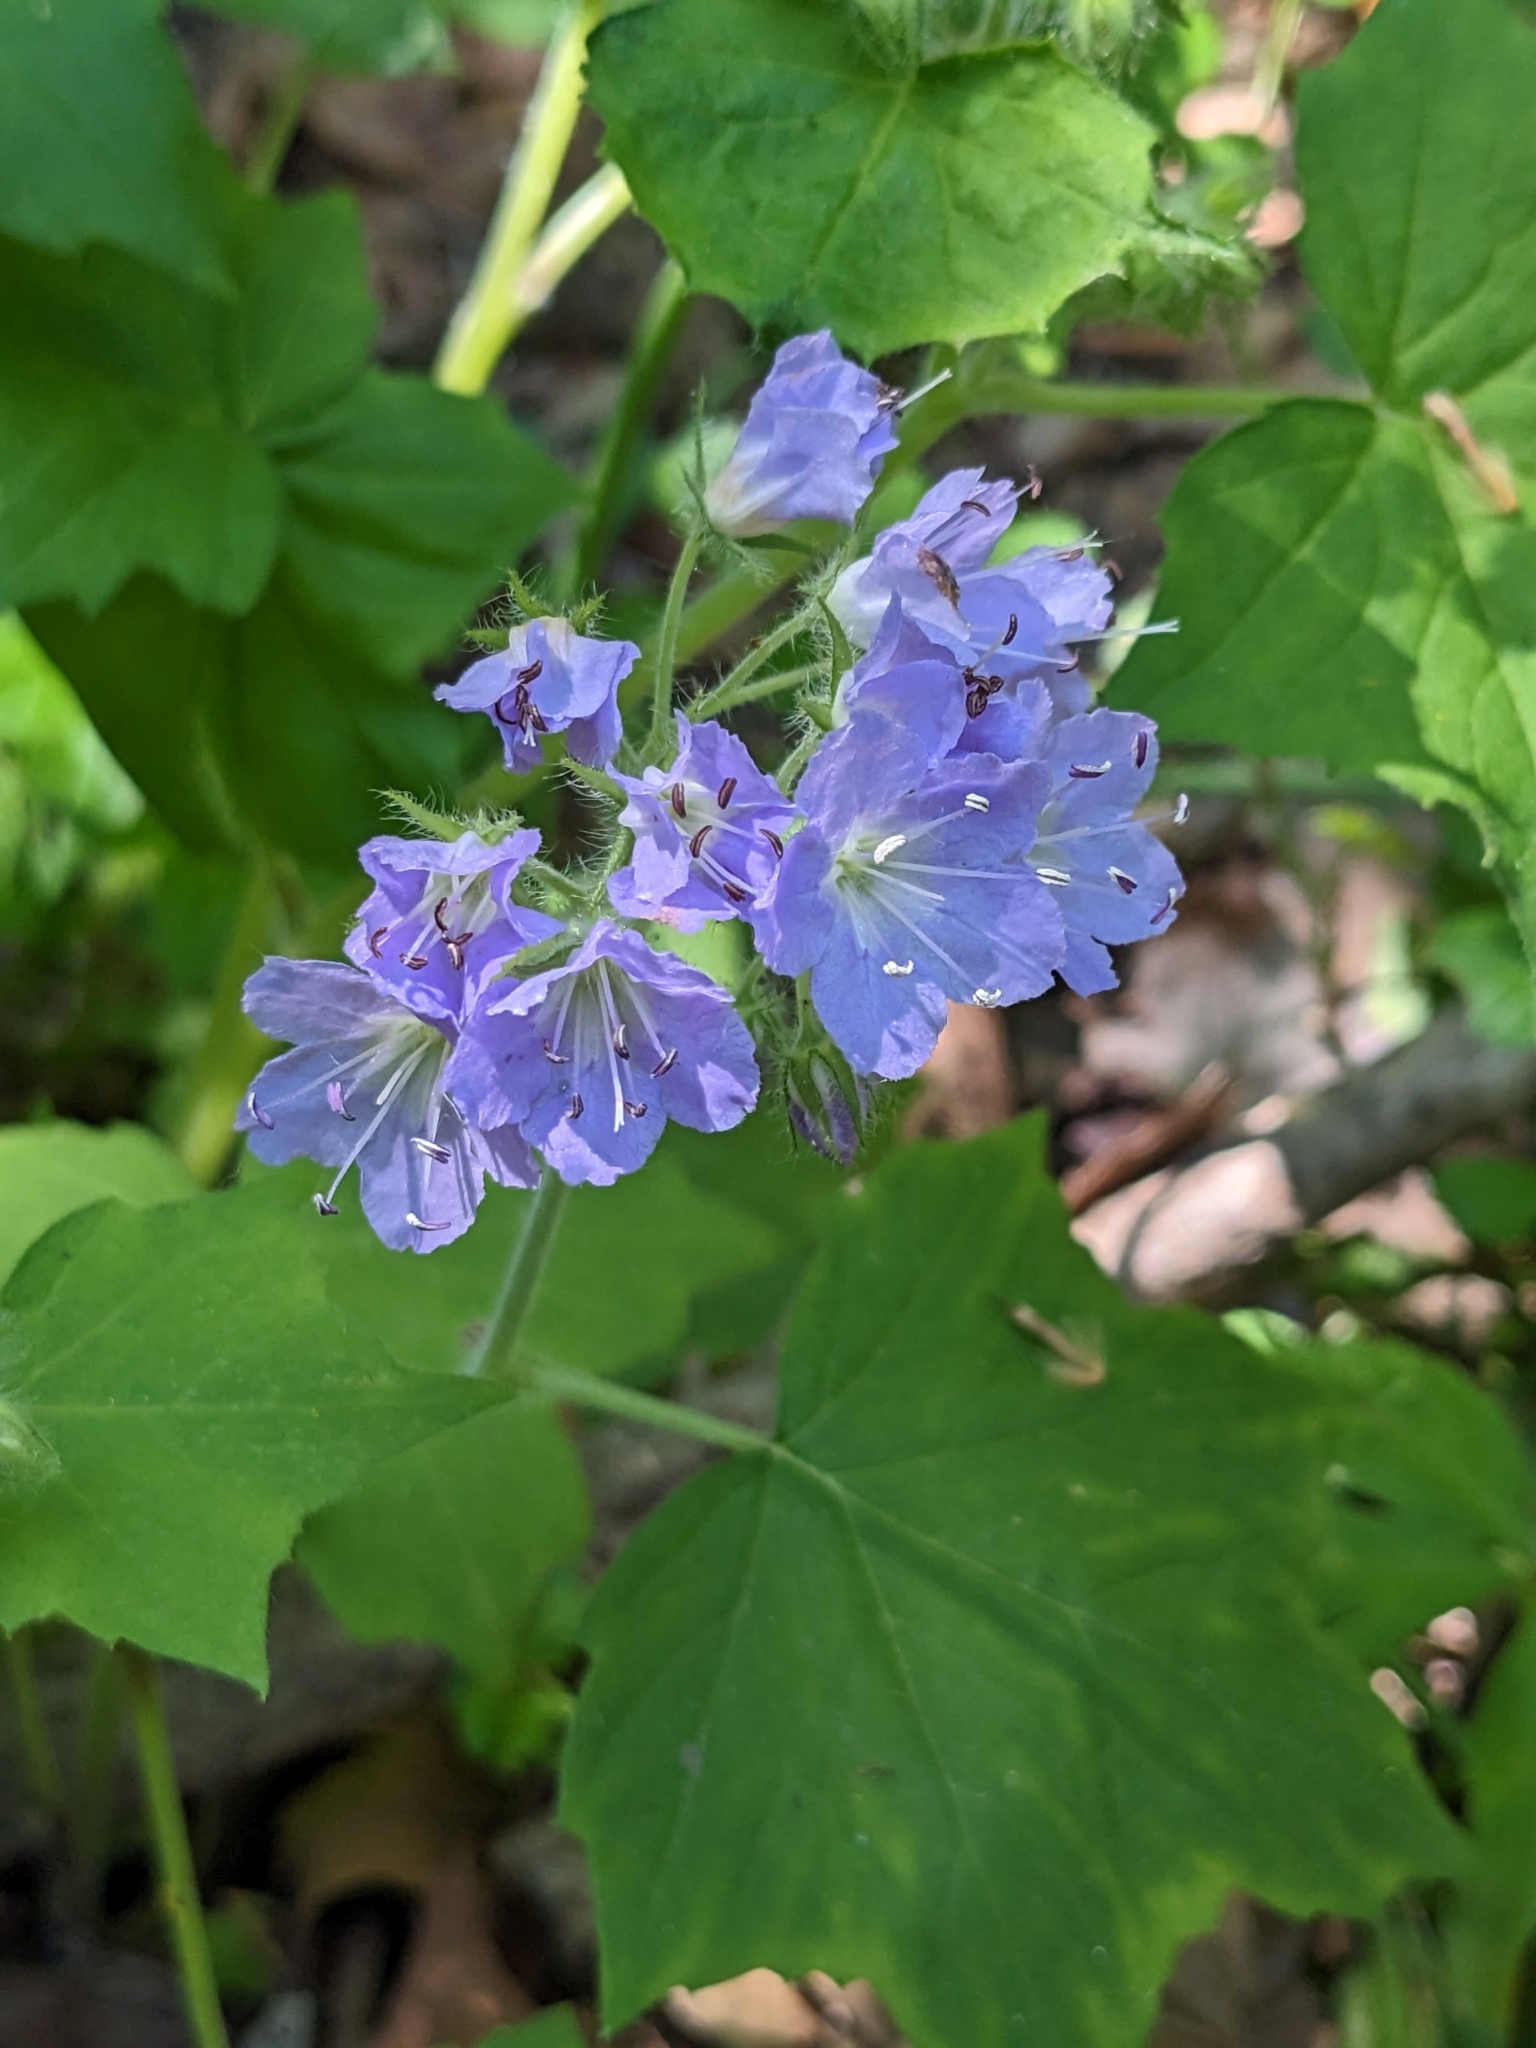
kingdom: Plantae
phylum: Tracheophyta
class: Magnoliopsida
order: Boraginales
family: Hydrophyllaceae
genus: Hydrophyllum
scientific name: Hydrophyllum appendiculatum
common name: Appendaged waterleaf
